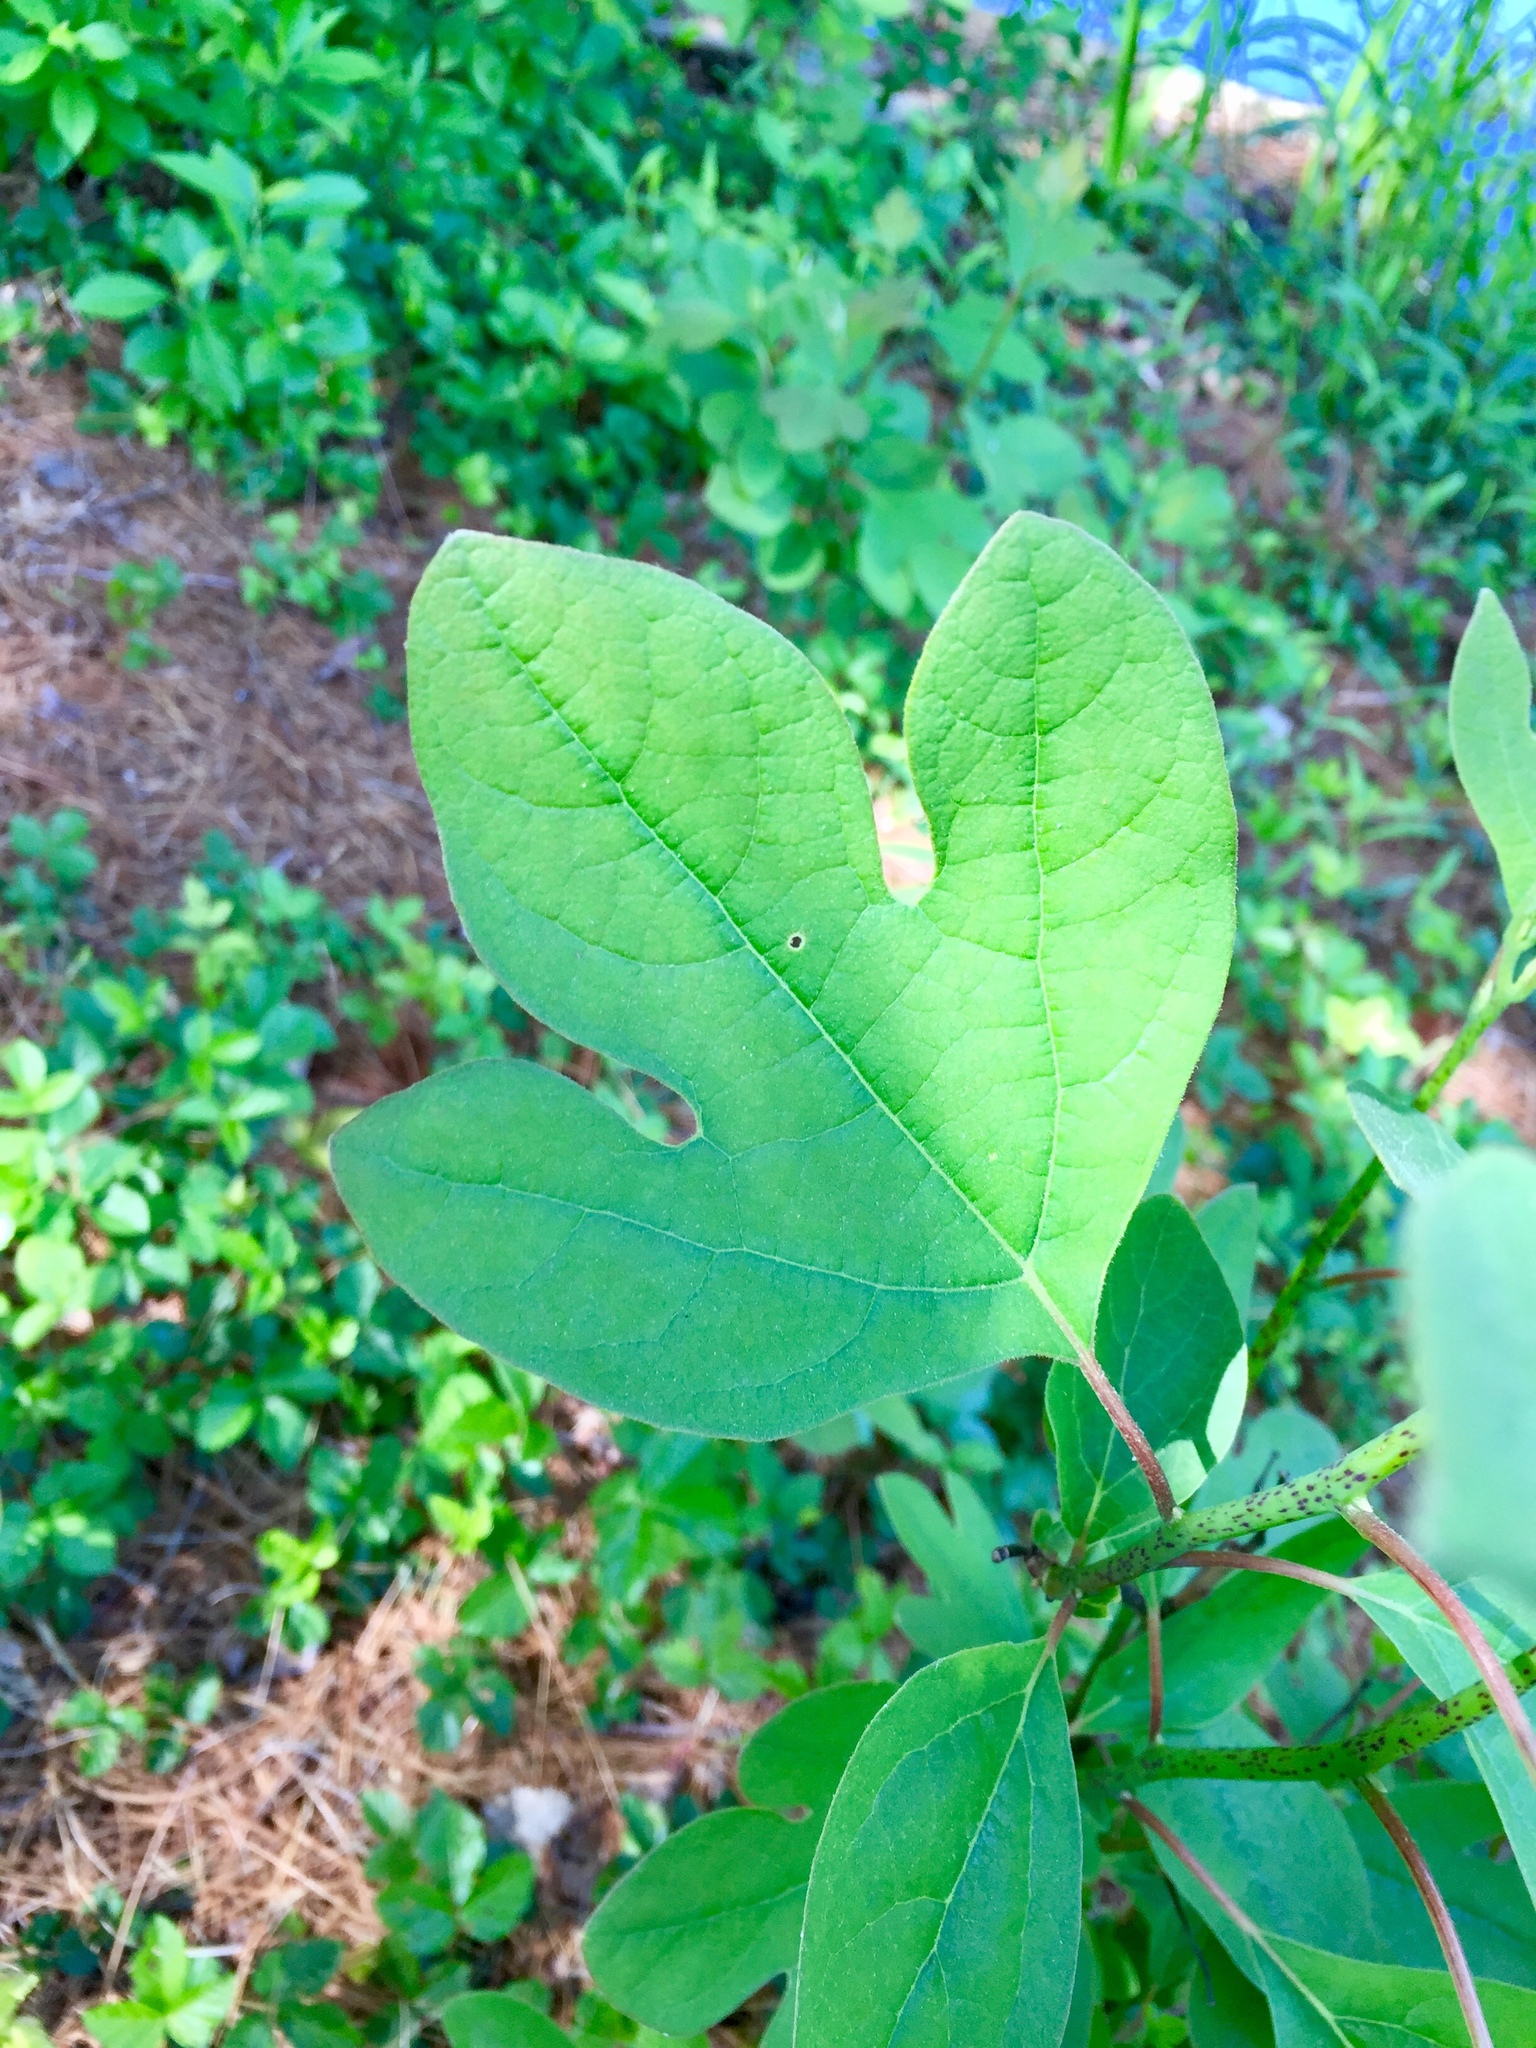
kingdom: Plantae
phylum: Tracheophyta
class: Magnoliopsida
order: Laurales
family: Lauraceae
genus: Sassafras
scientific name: Sassafras albidum
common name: Sassafras
